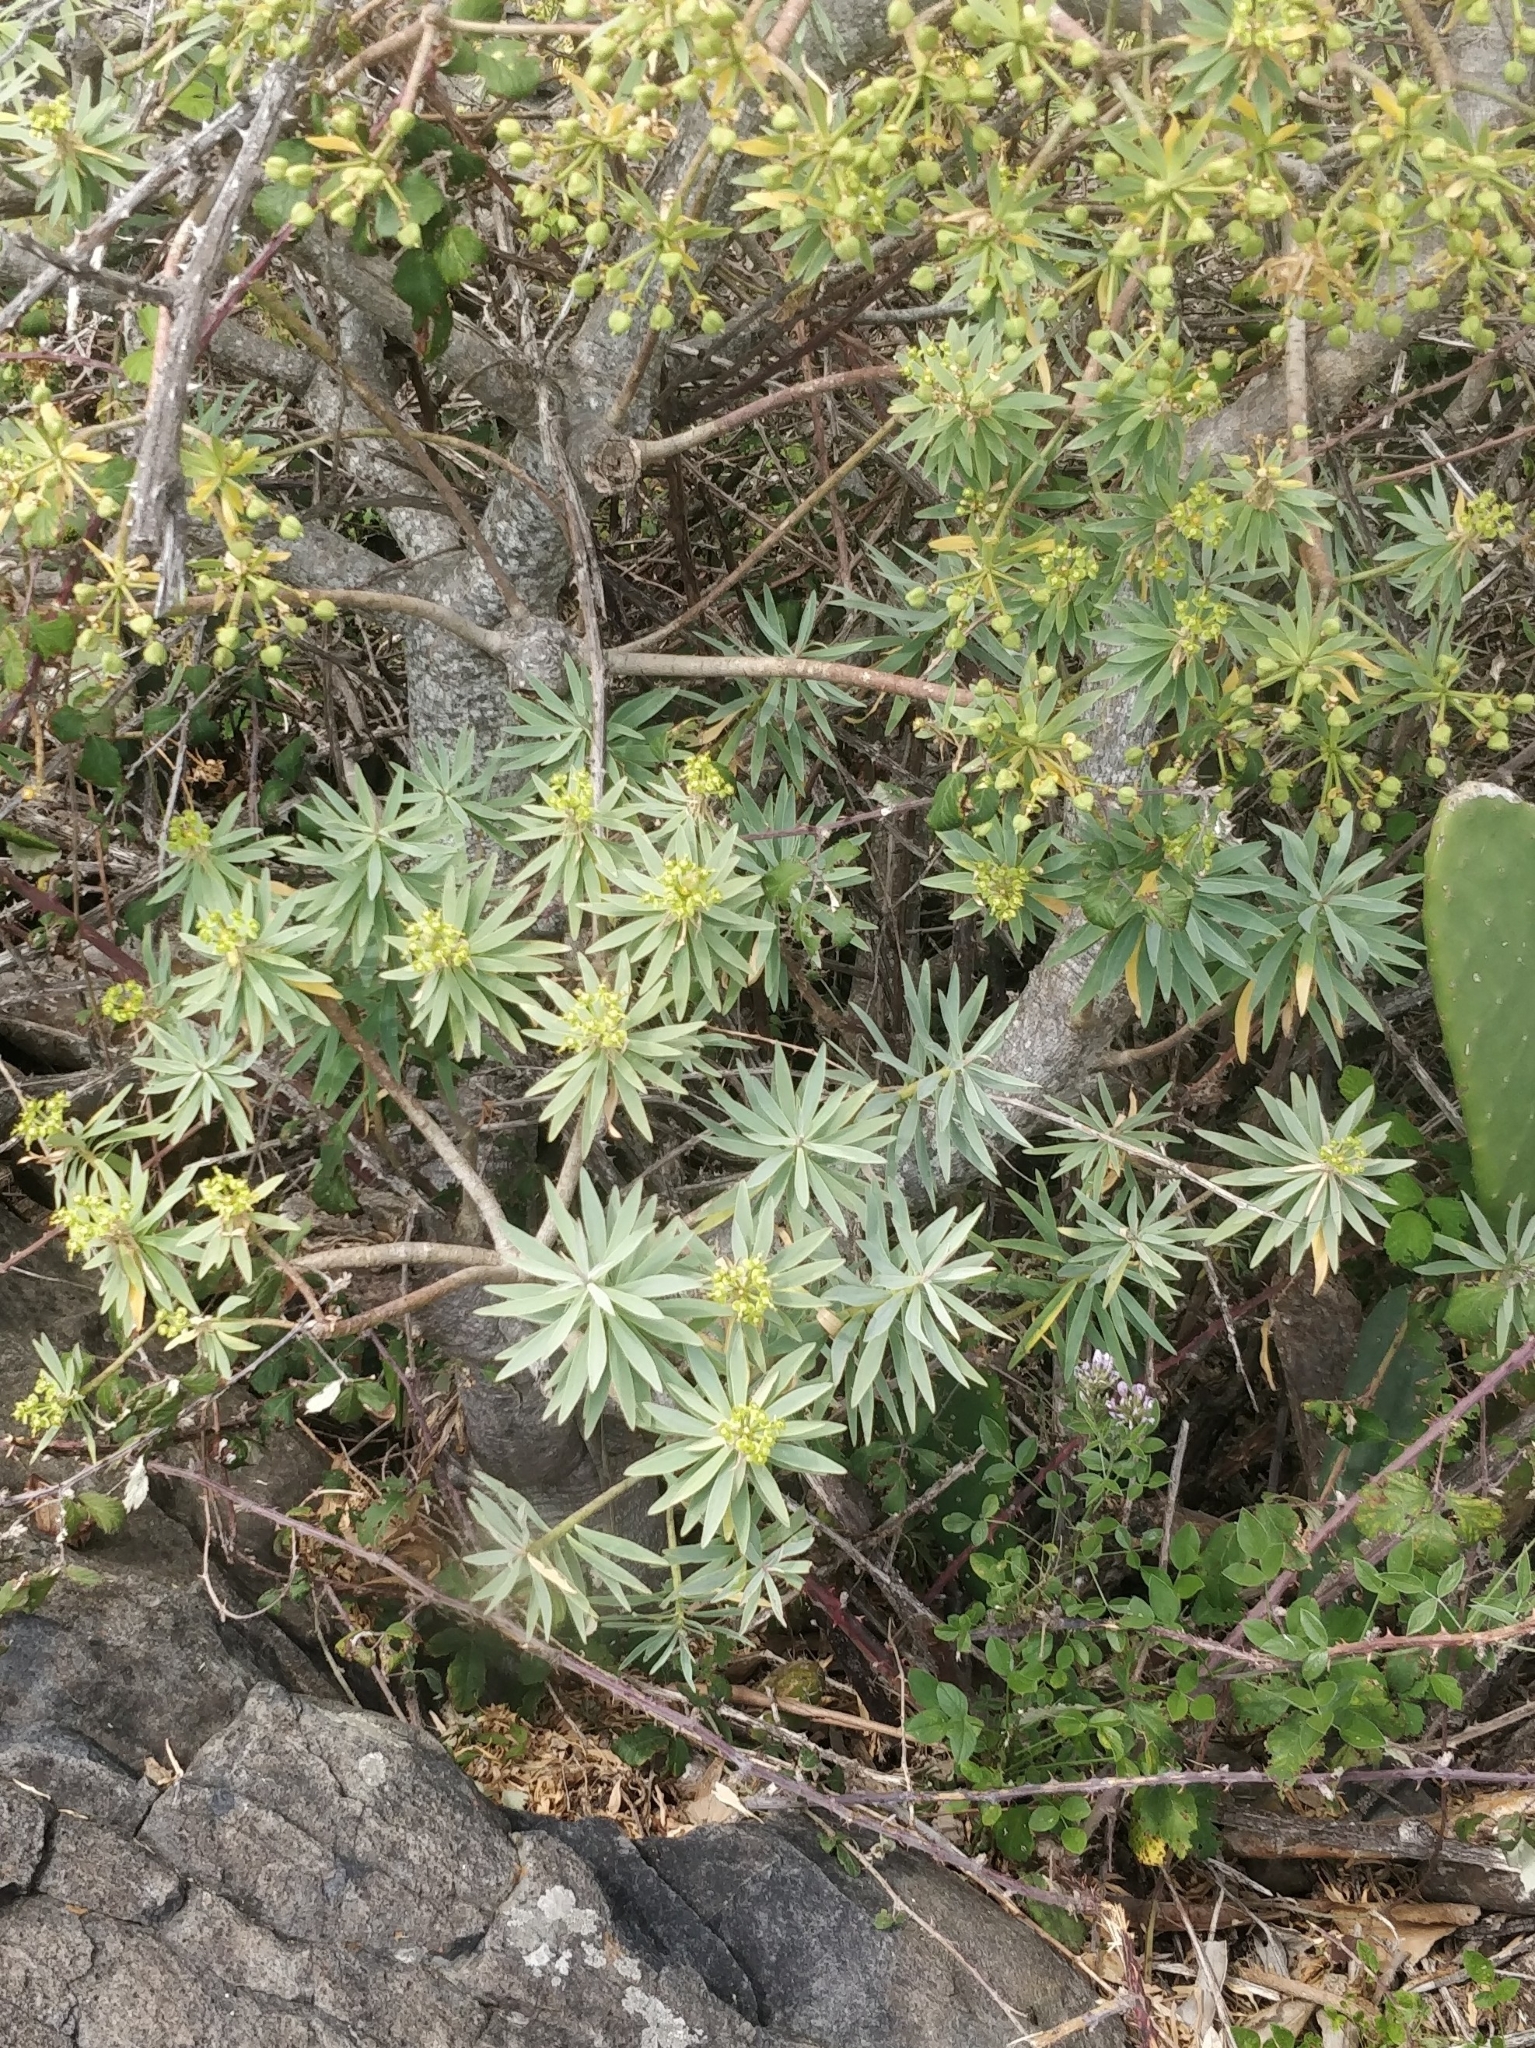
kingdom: Plantae
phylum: Tracheophyta
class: Magnoliopsida
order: Malpighiales
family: Euphorbiaceae
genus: Euphorbia
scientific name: Euphorbia piscatoria
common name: Fish-stunning spurge
